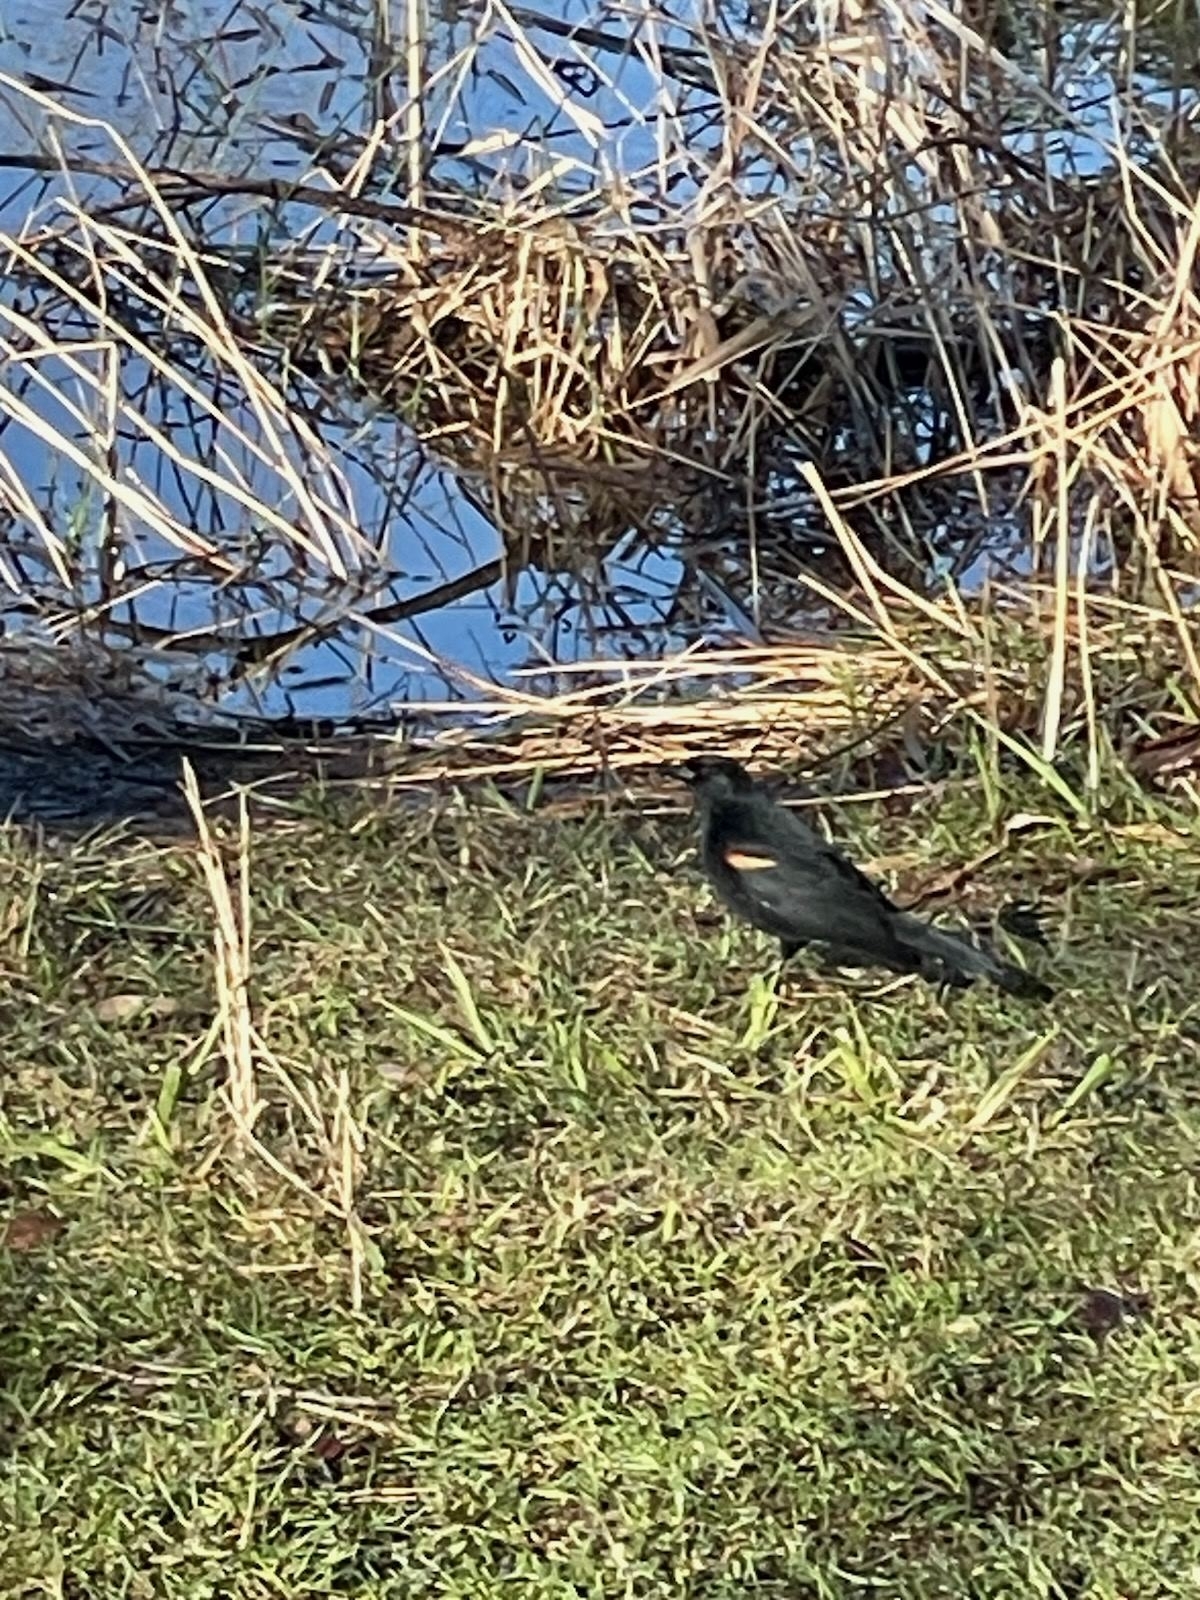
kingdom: Animalia
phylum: Chordata
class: Aves
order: Passeriformes
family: Icteridae
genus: Agelaius
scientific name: Agelaius phoeniceus
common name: Red-winged blackbird
